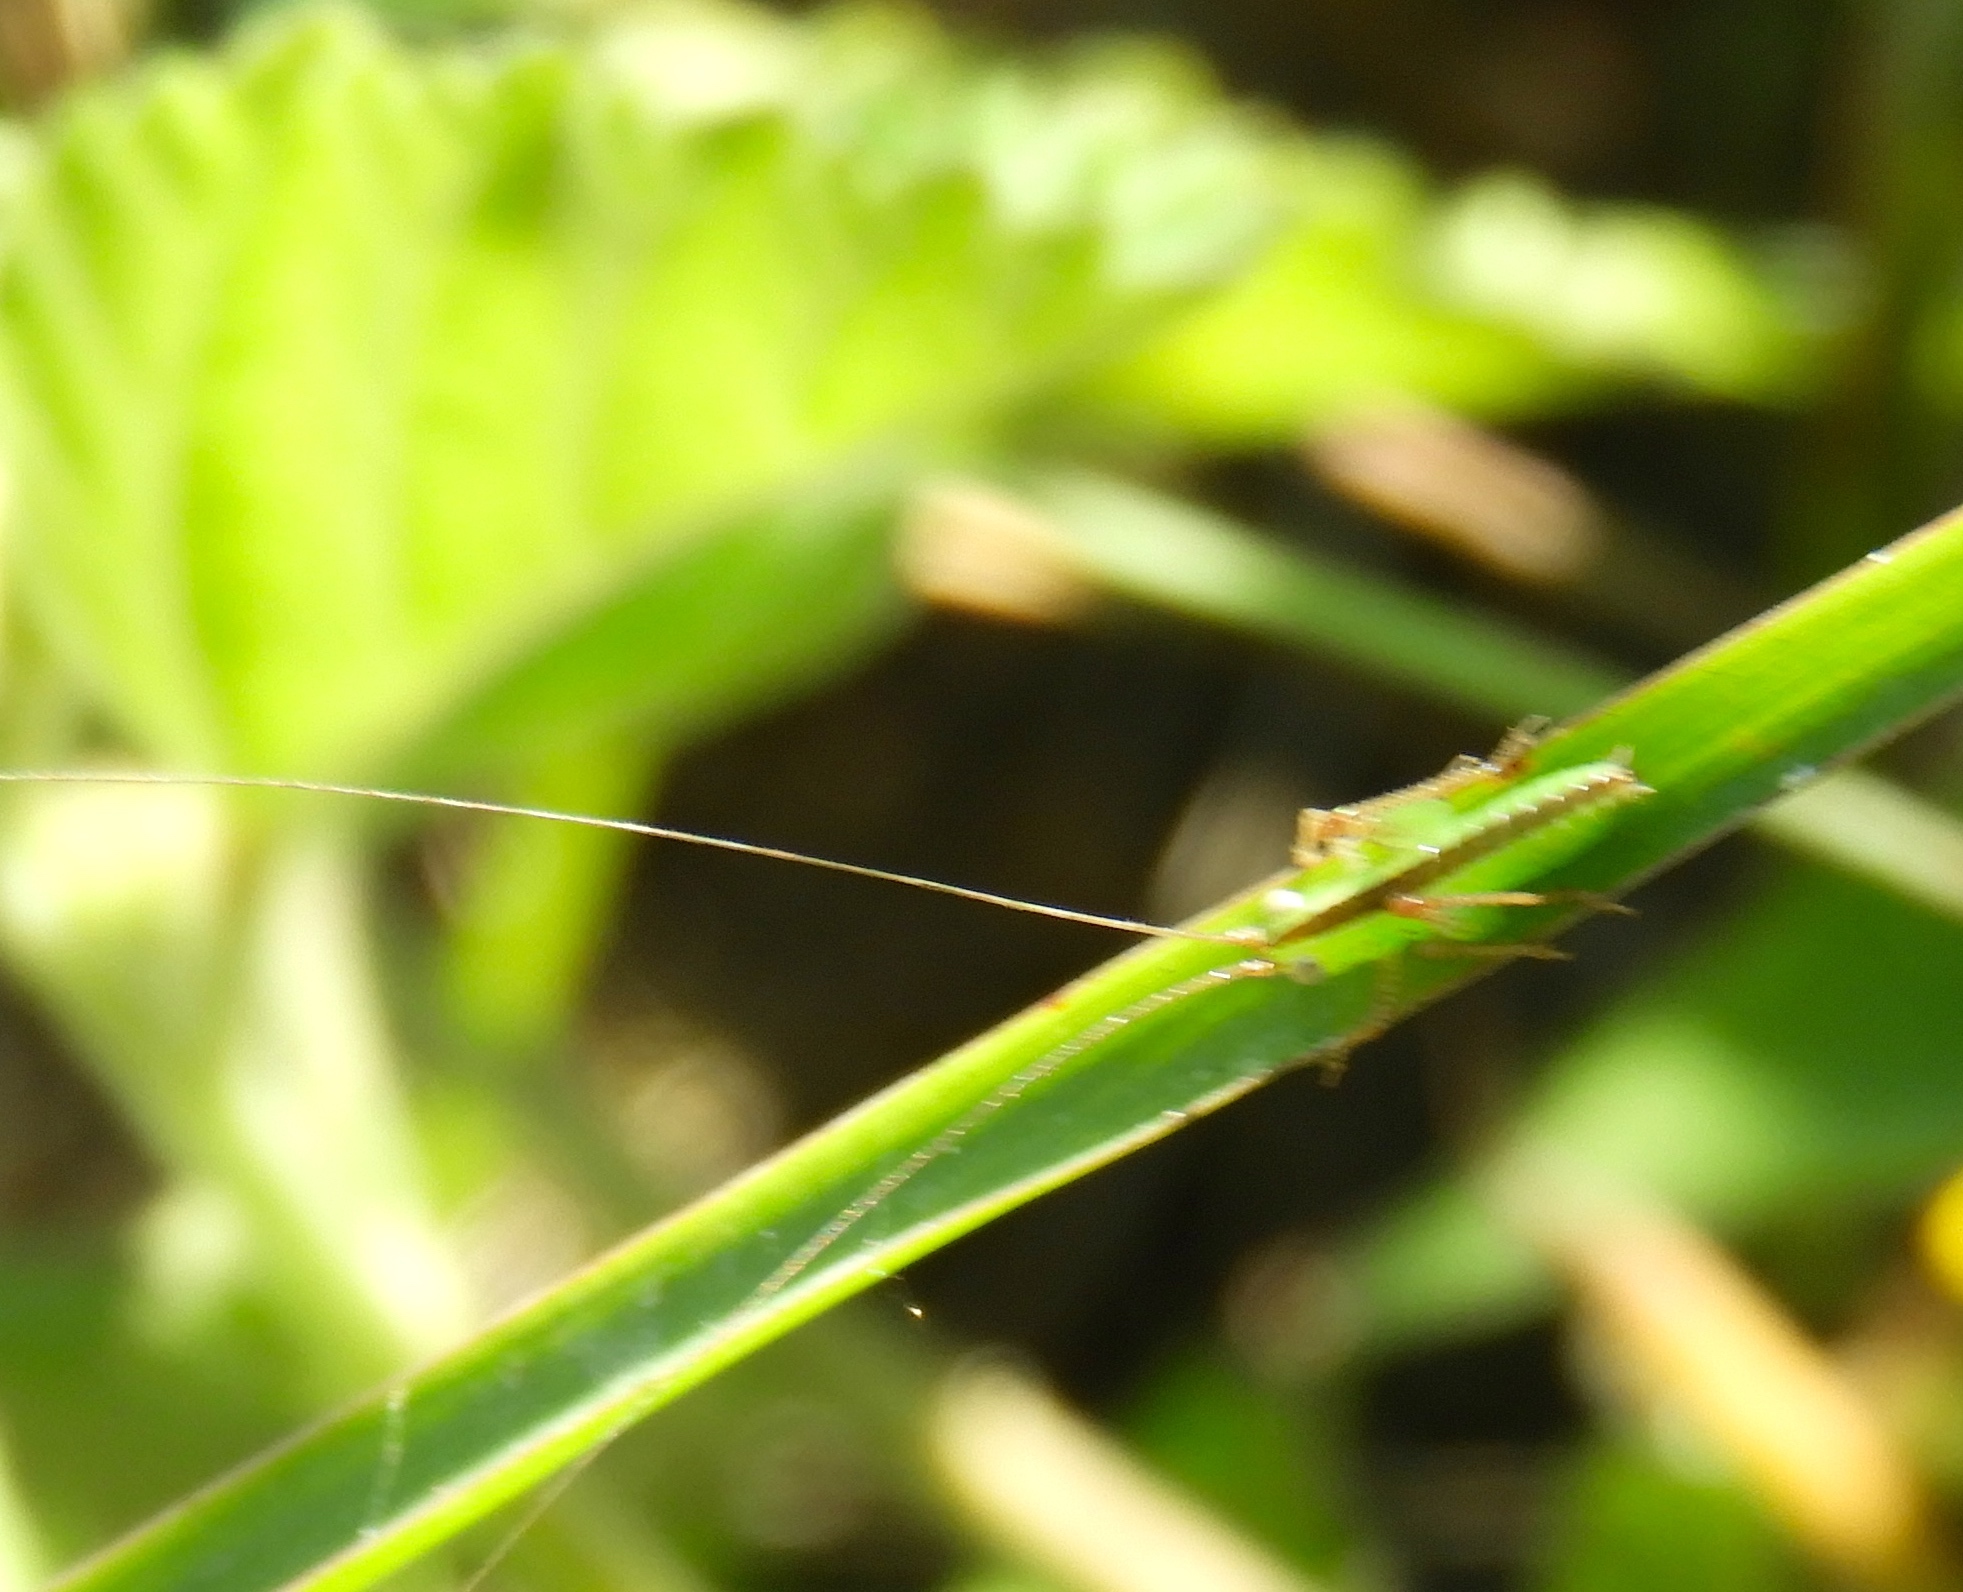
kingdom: Animalia
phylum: Arthropoda
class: Insecta
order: Orthoptera
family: Tettigoniidae
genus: Conocephalus
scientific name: Conocephalus
